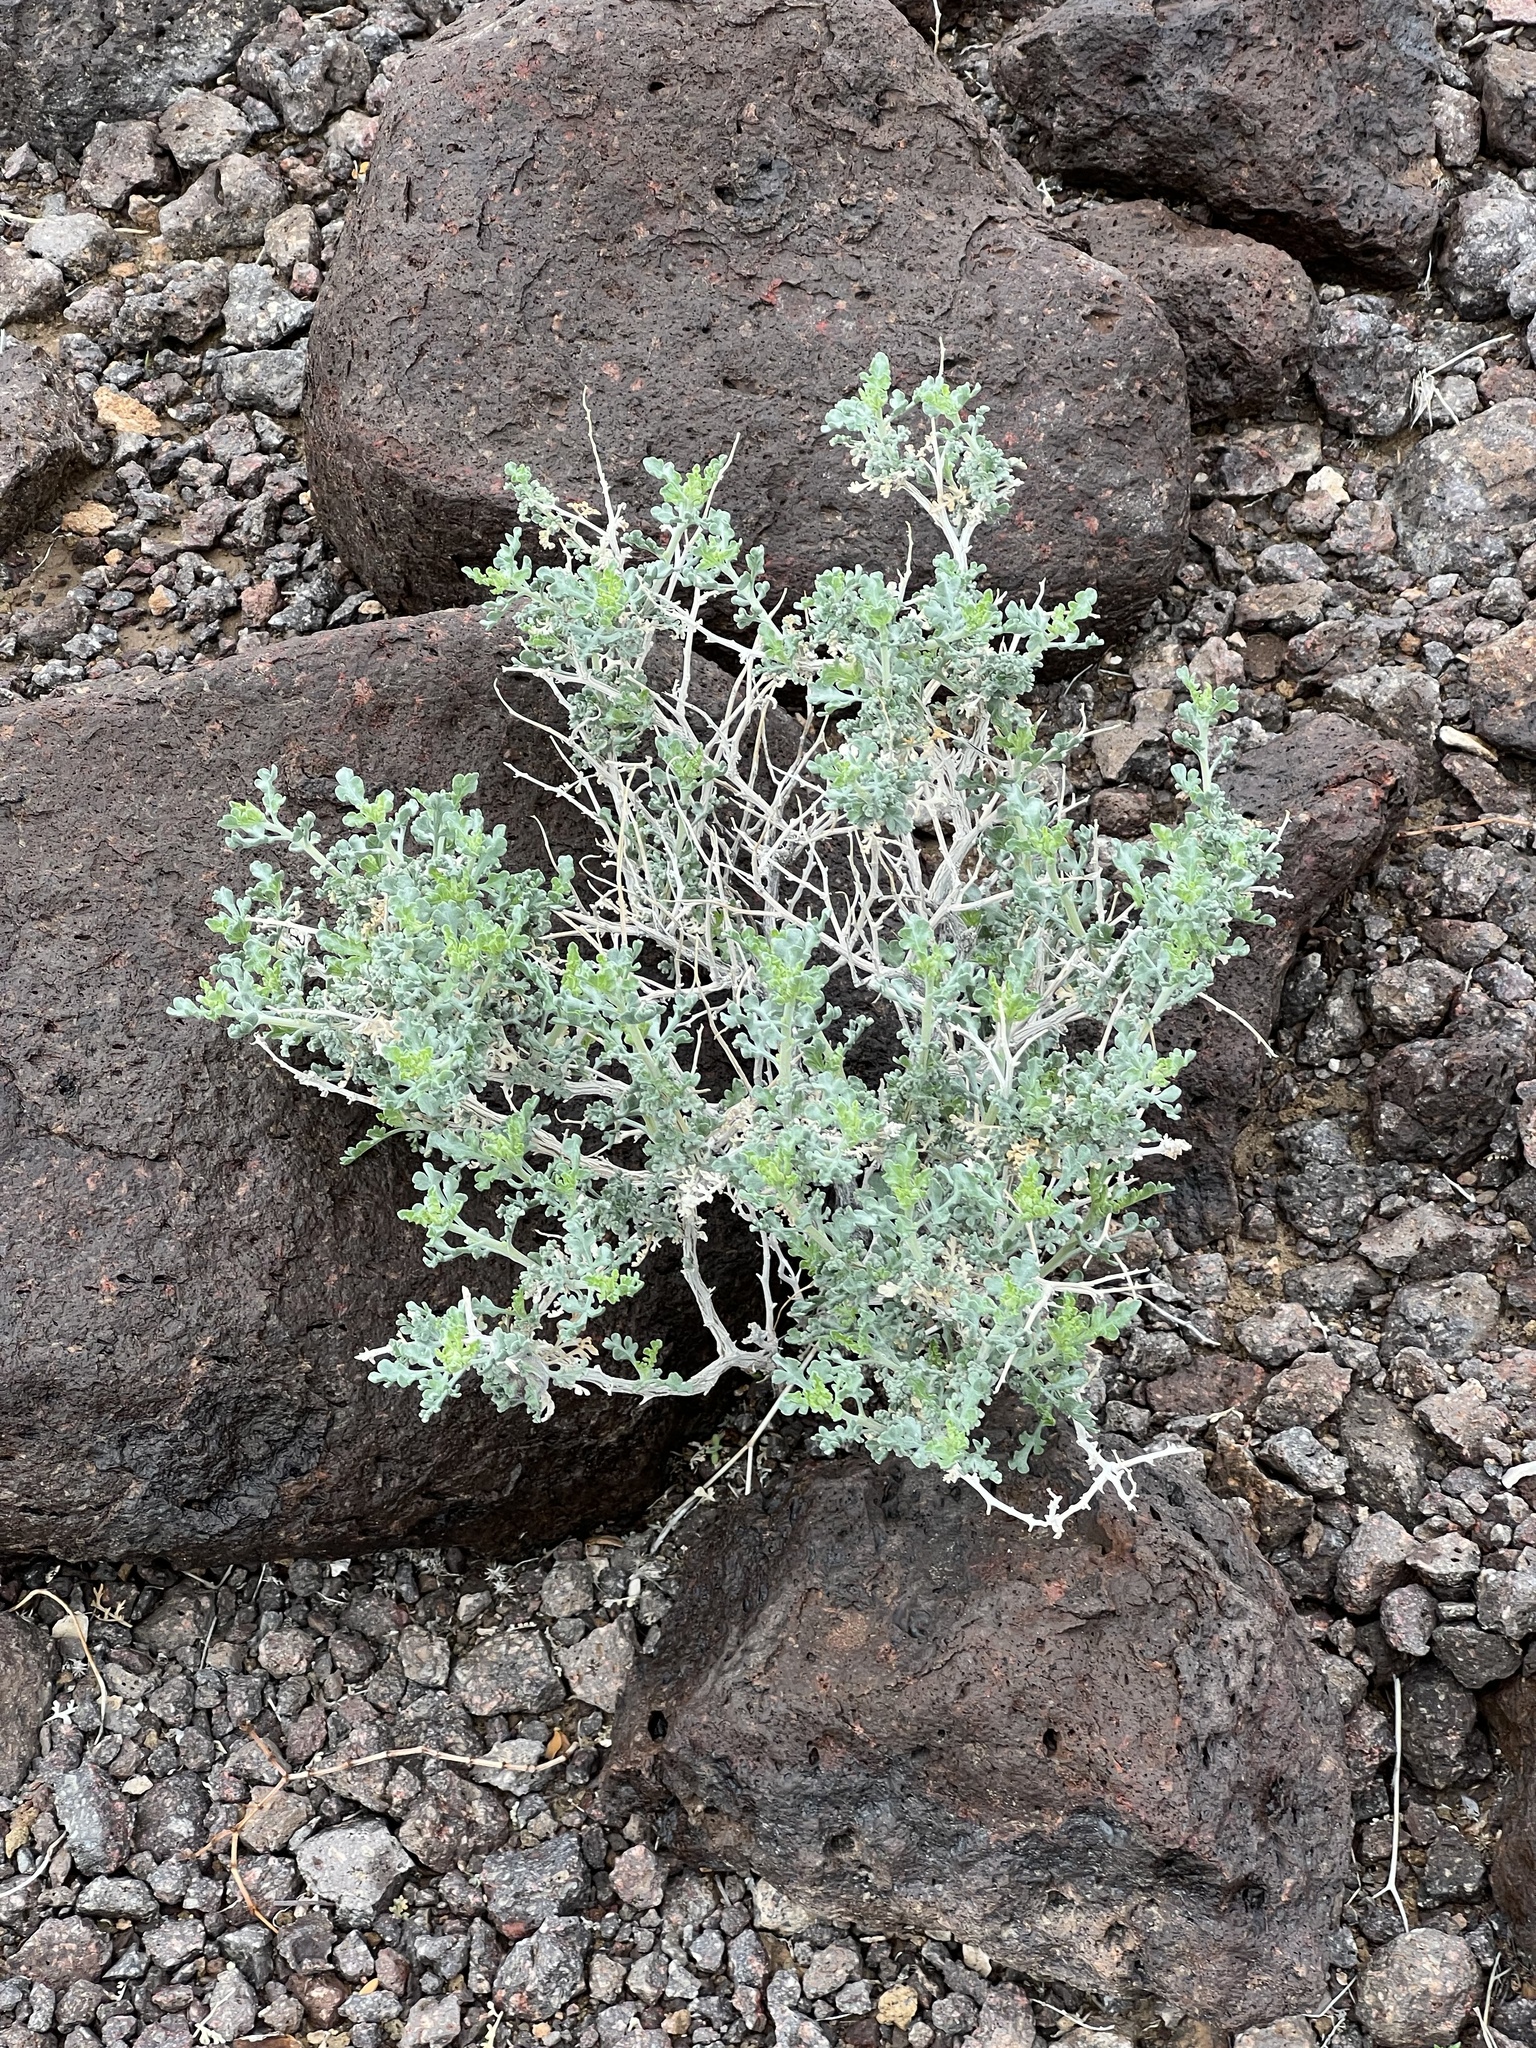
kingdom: Plantae
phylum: Tracheophyta
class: Magnoliopsida
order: Asterales
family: Asteraceae
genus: Ambrosia
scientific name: Ambrosia dumosa
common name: Bur-sage
